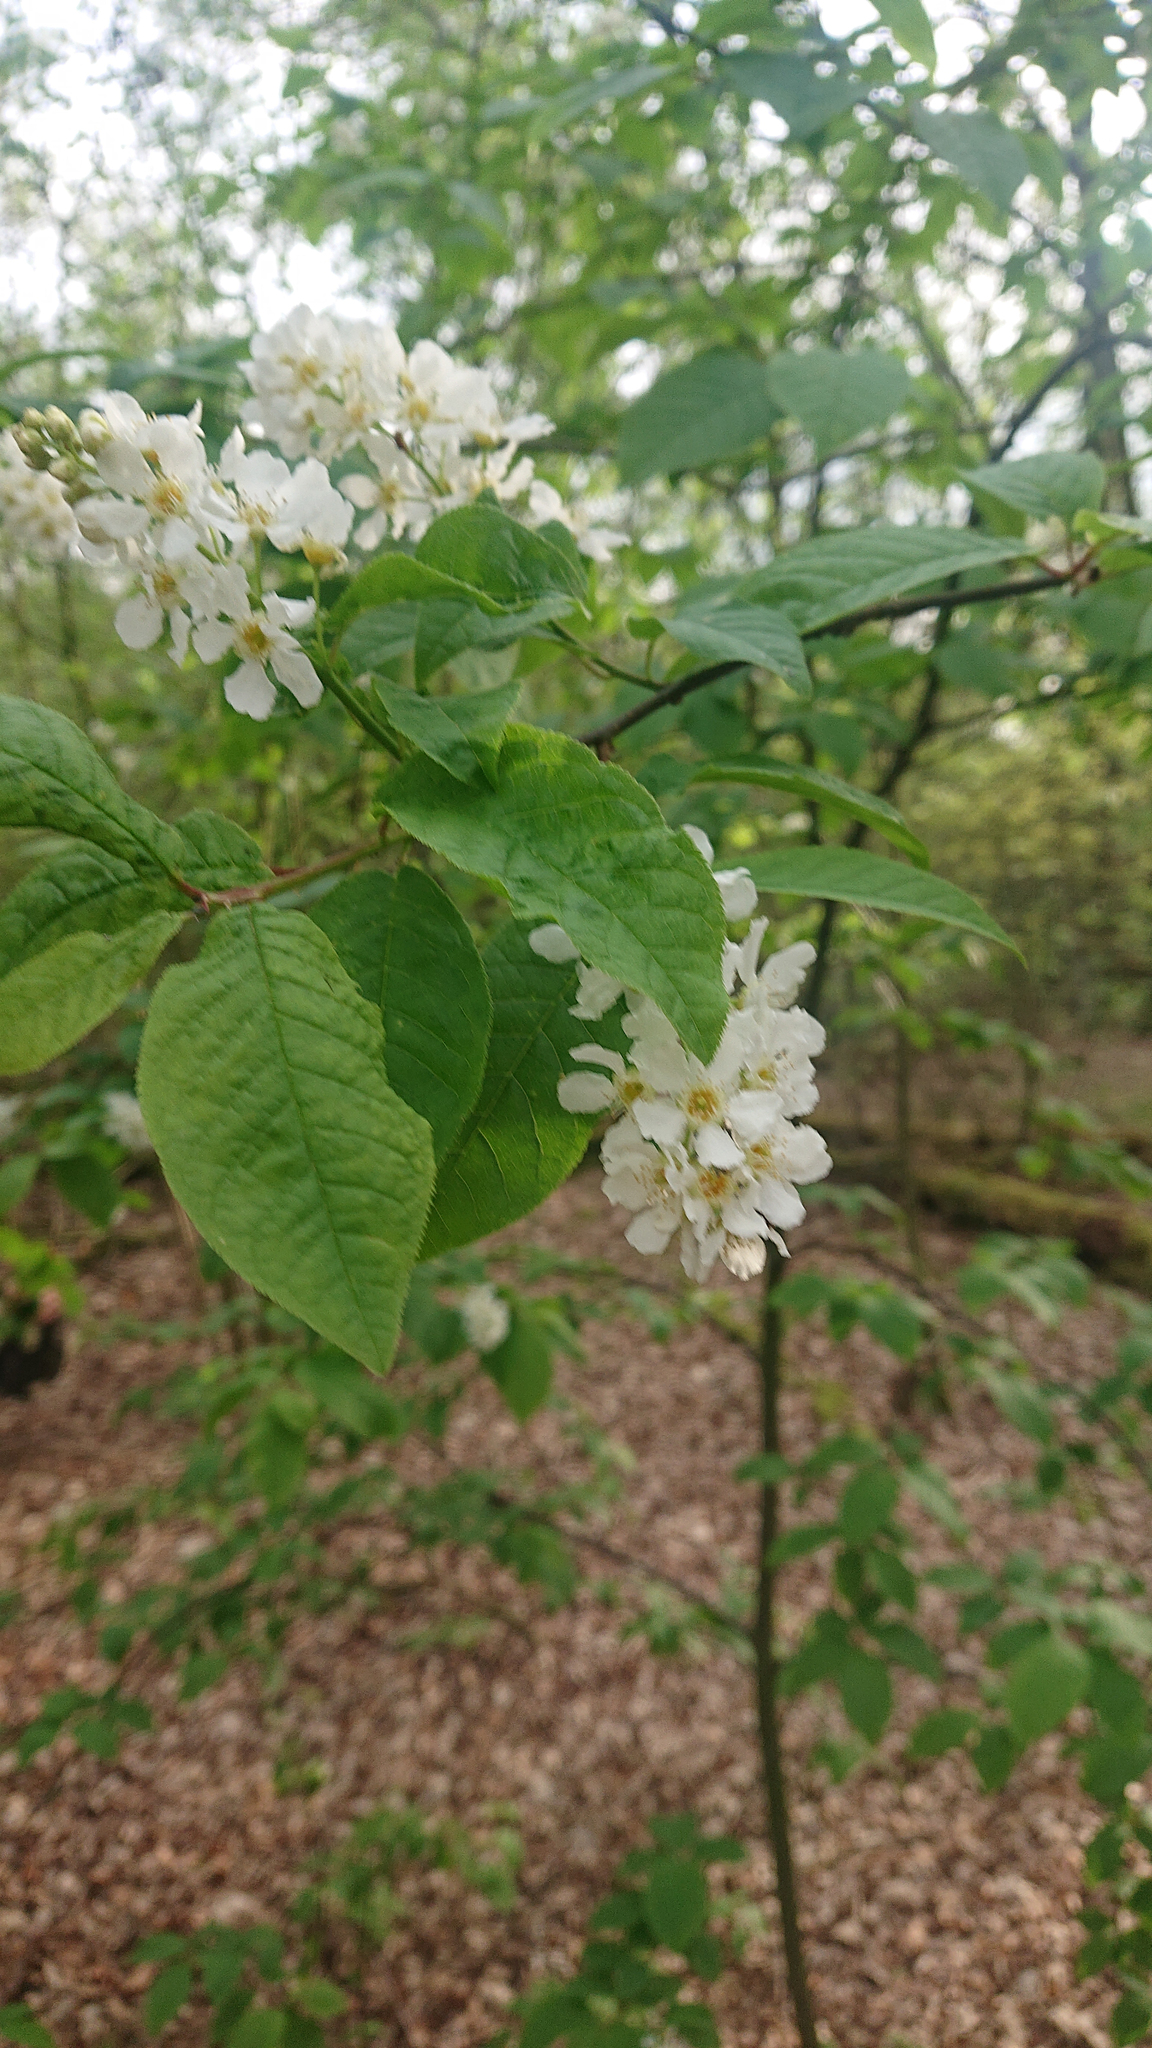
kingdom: Plantae
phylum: Tracheophyta
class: Magnoliopsida
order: Rosales
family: Rosaceae
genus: Prunus
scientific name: Prunus padus
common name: Bird cherry
